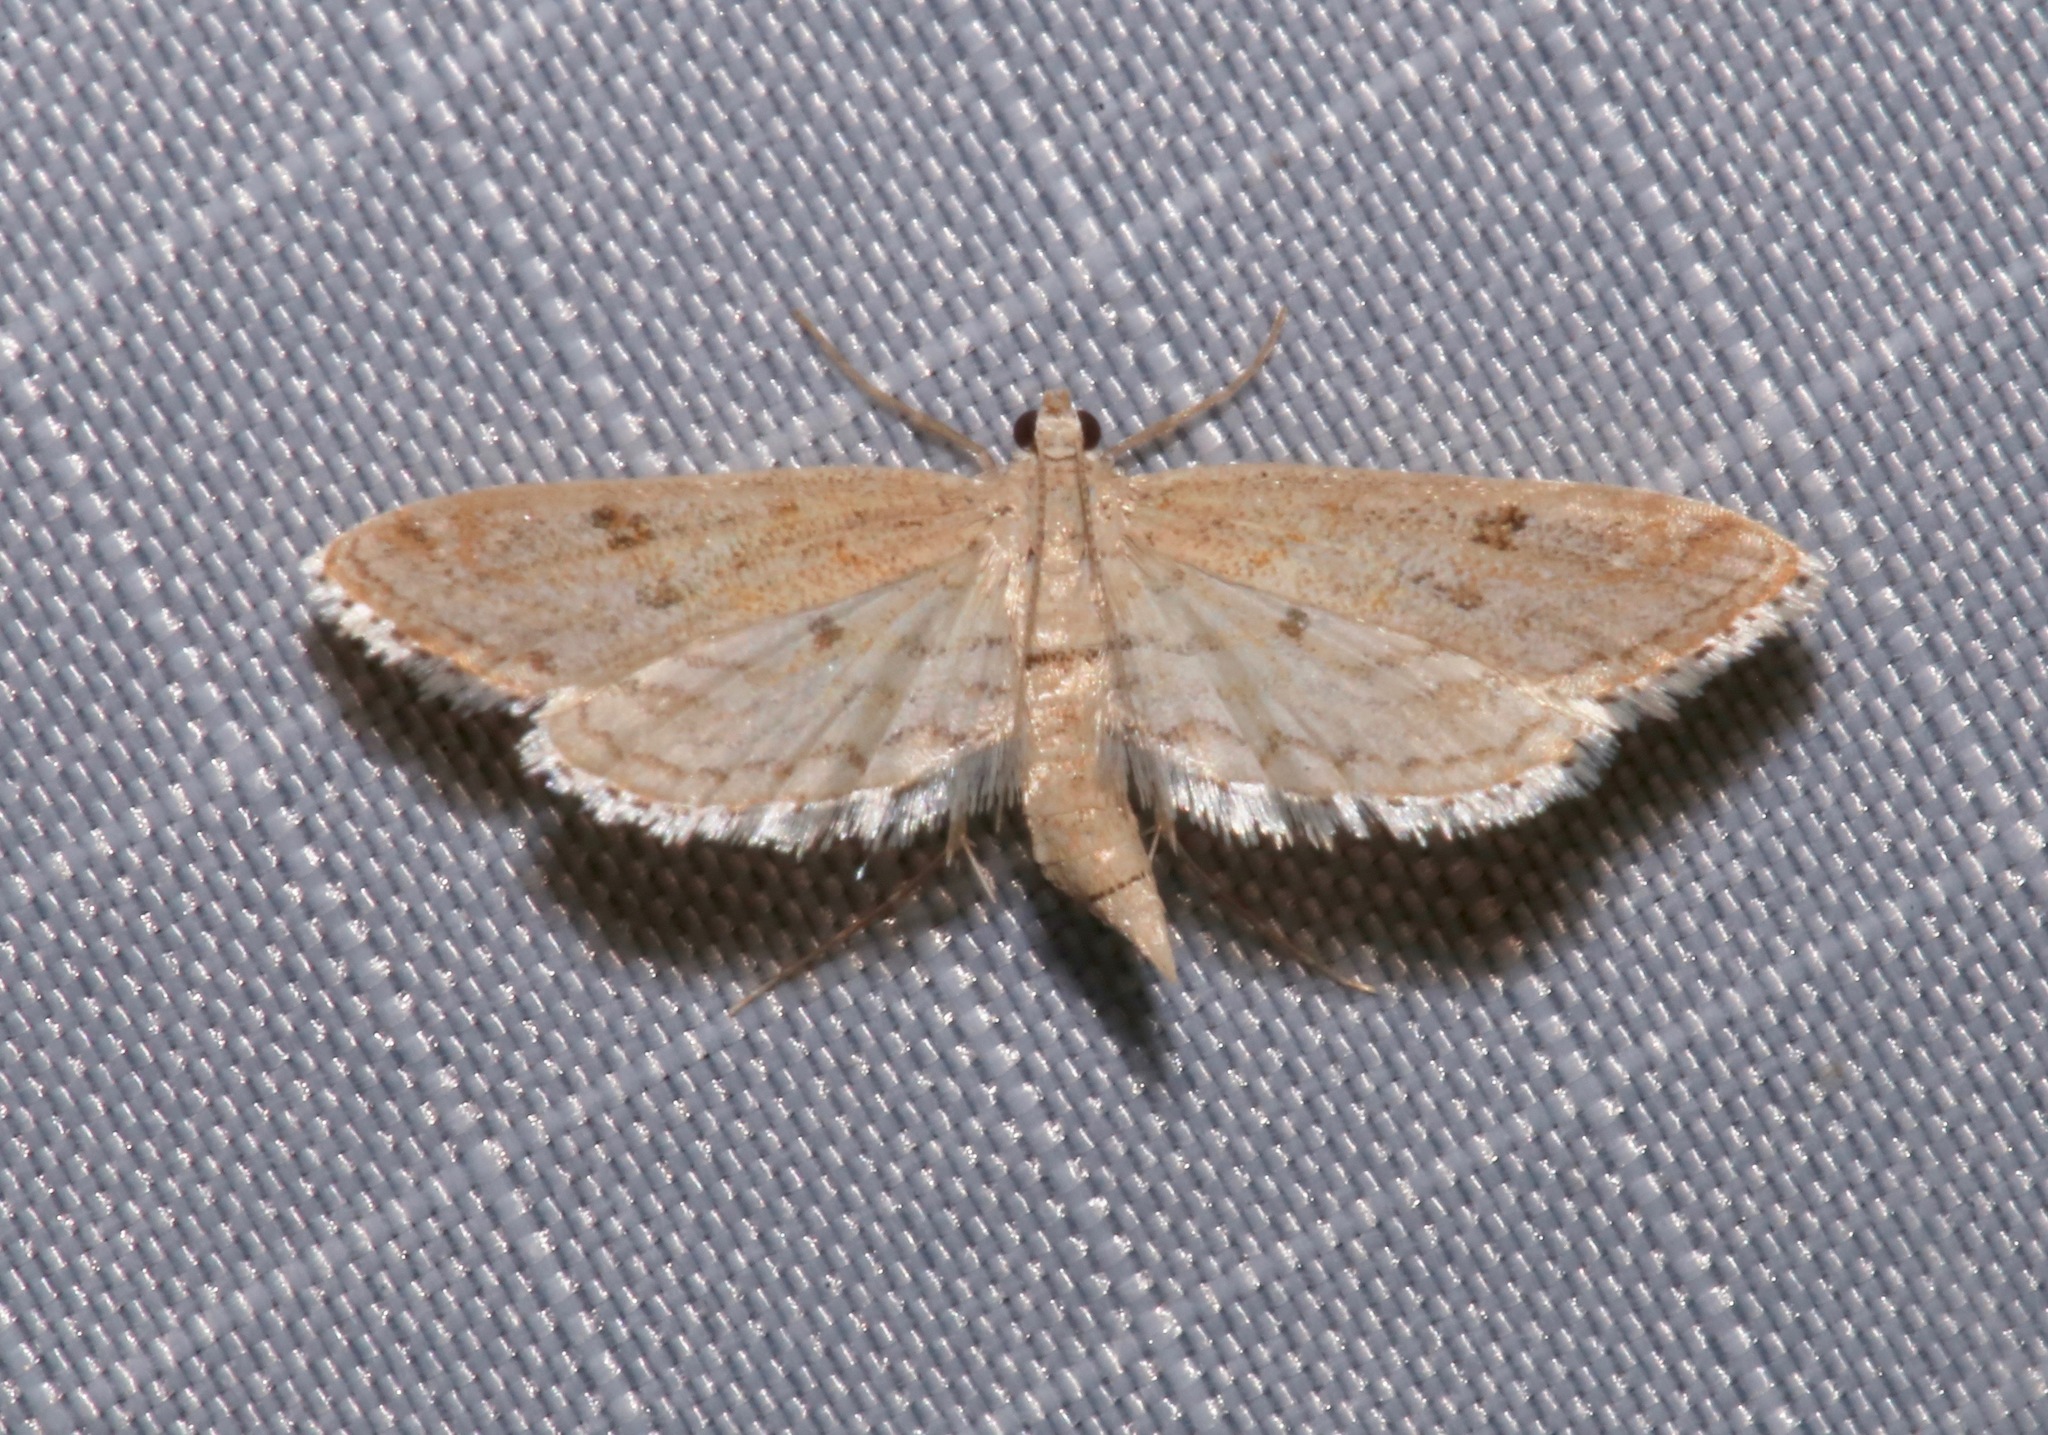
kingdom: Animalia
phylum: Arthropoda
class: Insecta
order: Lepidoptera
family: Crambidae
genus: Parapoynx
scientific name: Parapoynx allionealis
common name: Bladderwort casemaker
